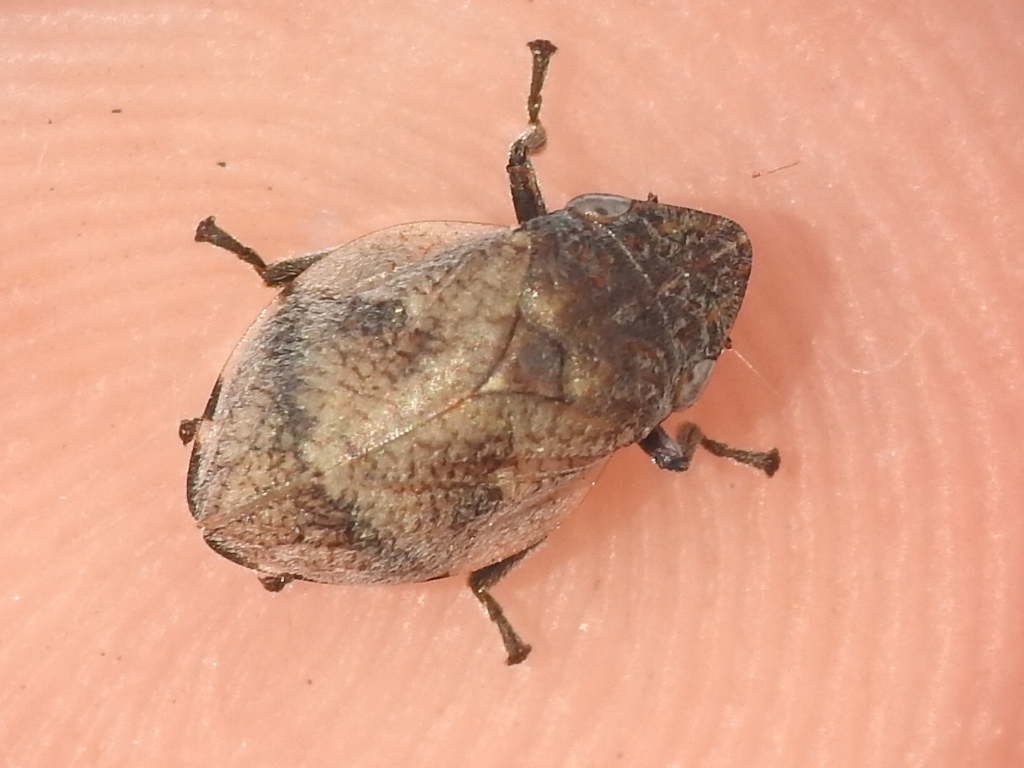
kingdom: Animalia
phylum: Arthropoda
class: Insecta
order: Hemiptera
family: Aphrophoridae
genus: Lepyronia
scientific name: Lepyronia gibbosa
